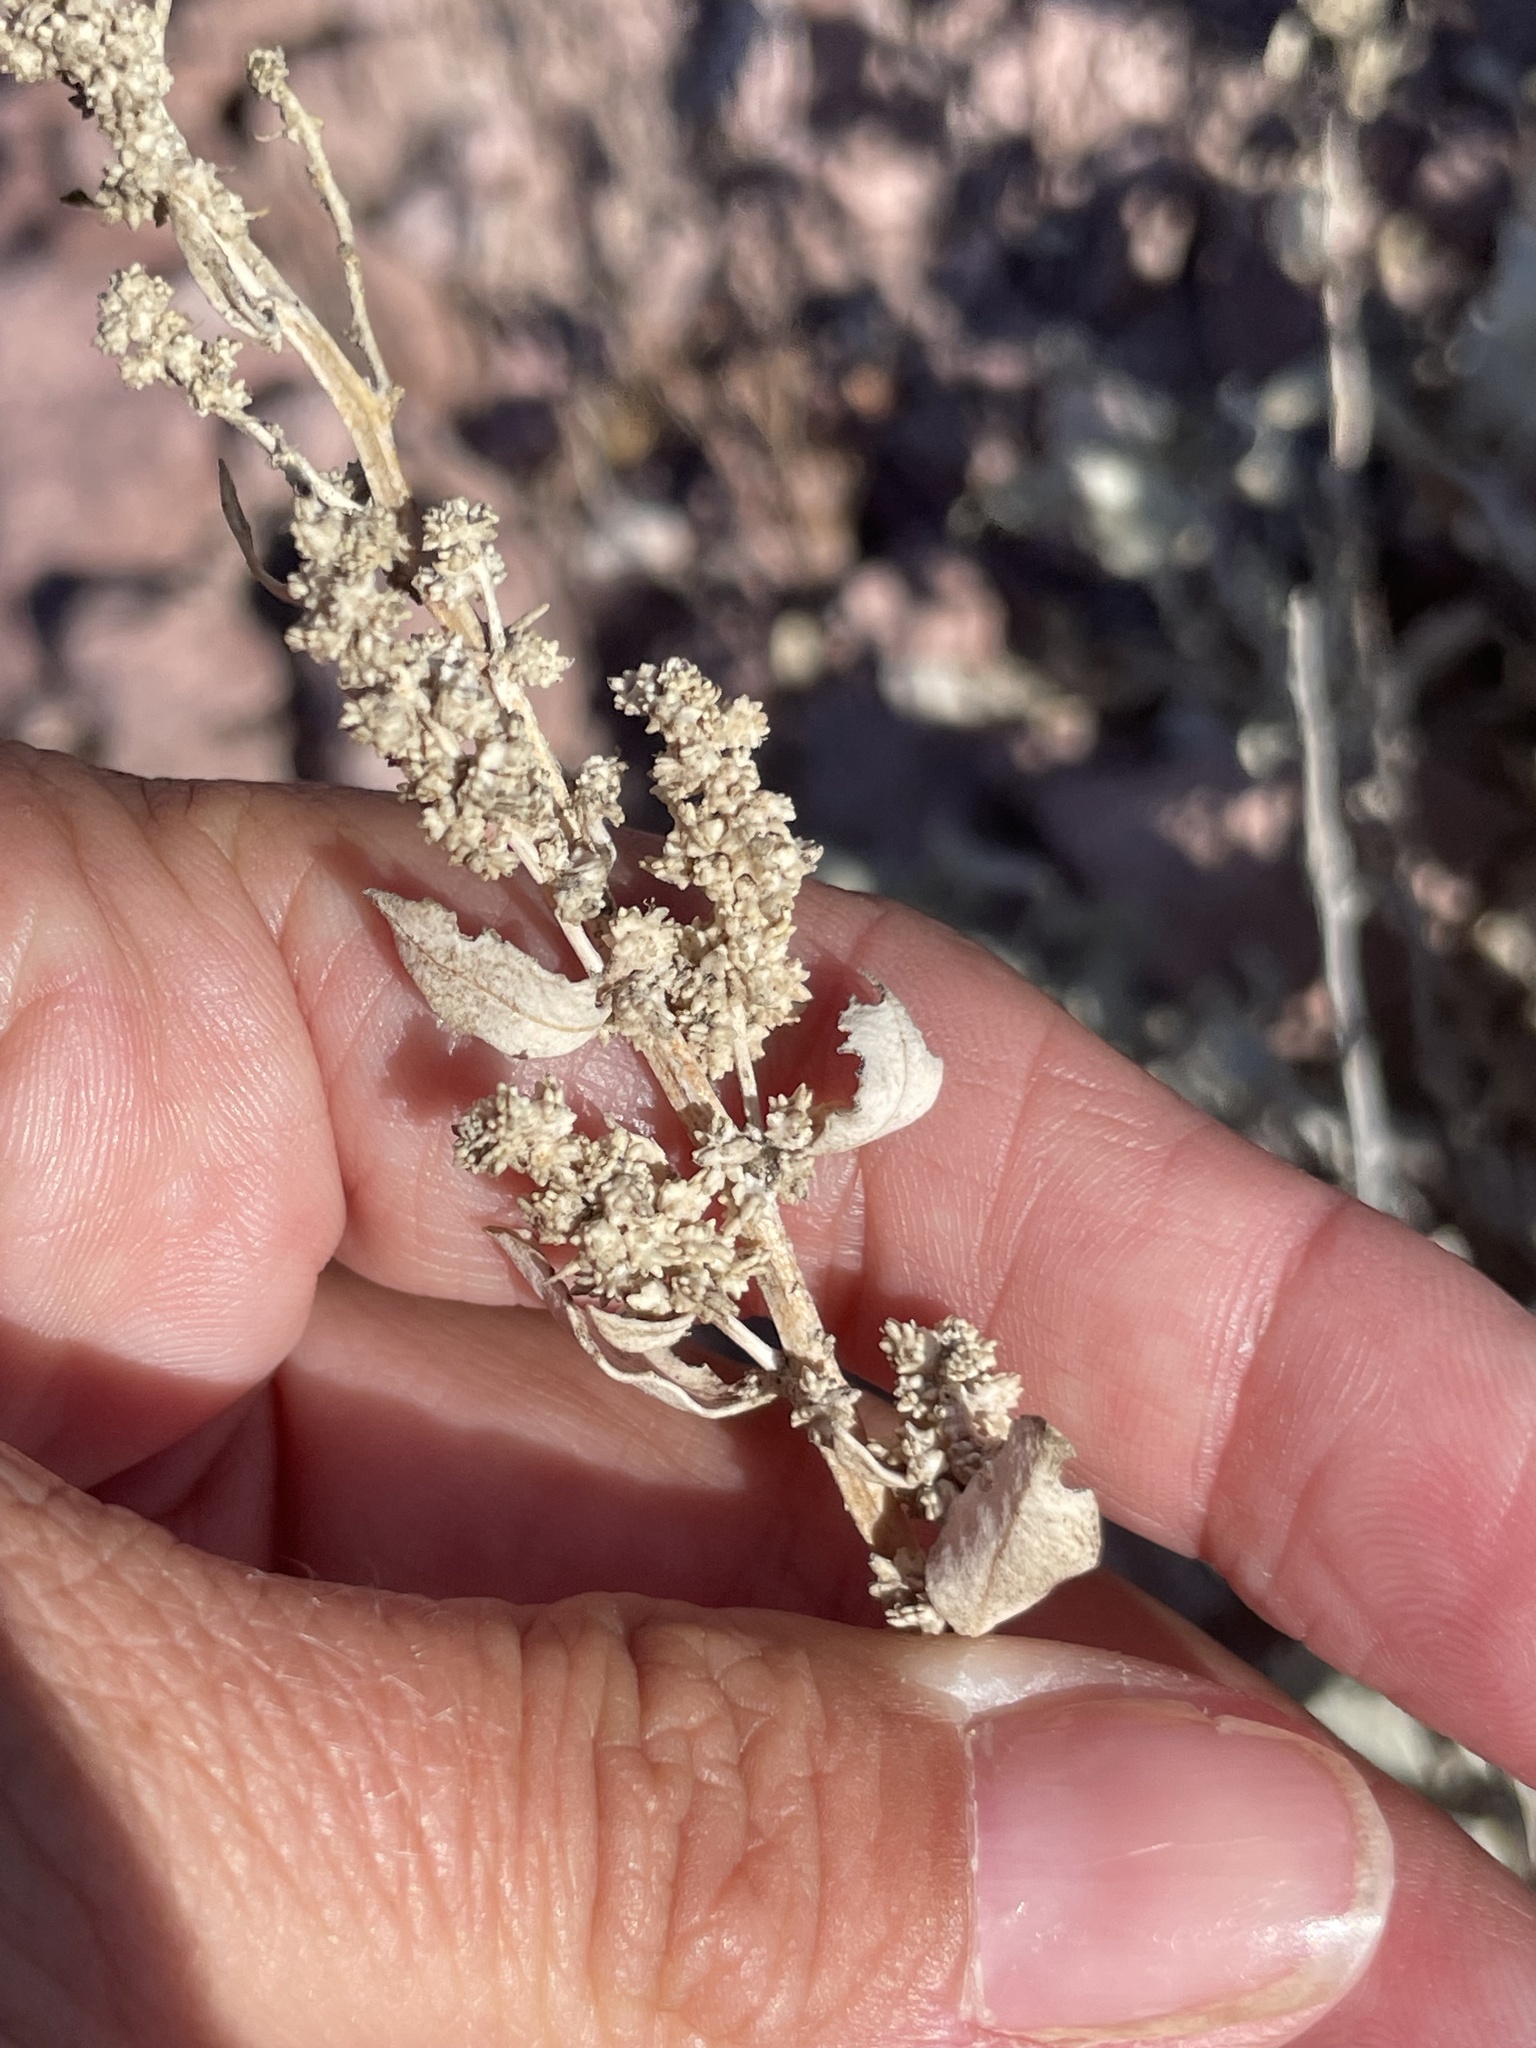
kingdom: Plantae
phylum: Tracheophyta
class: Magnoliopsida
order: Caryophyllales
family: Amaranthaceae
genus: Atriplex
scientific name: Atriplex barclayana
